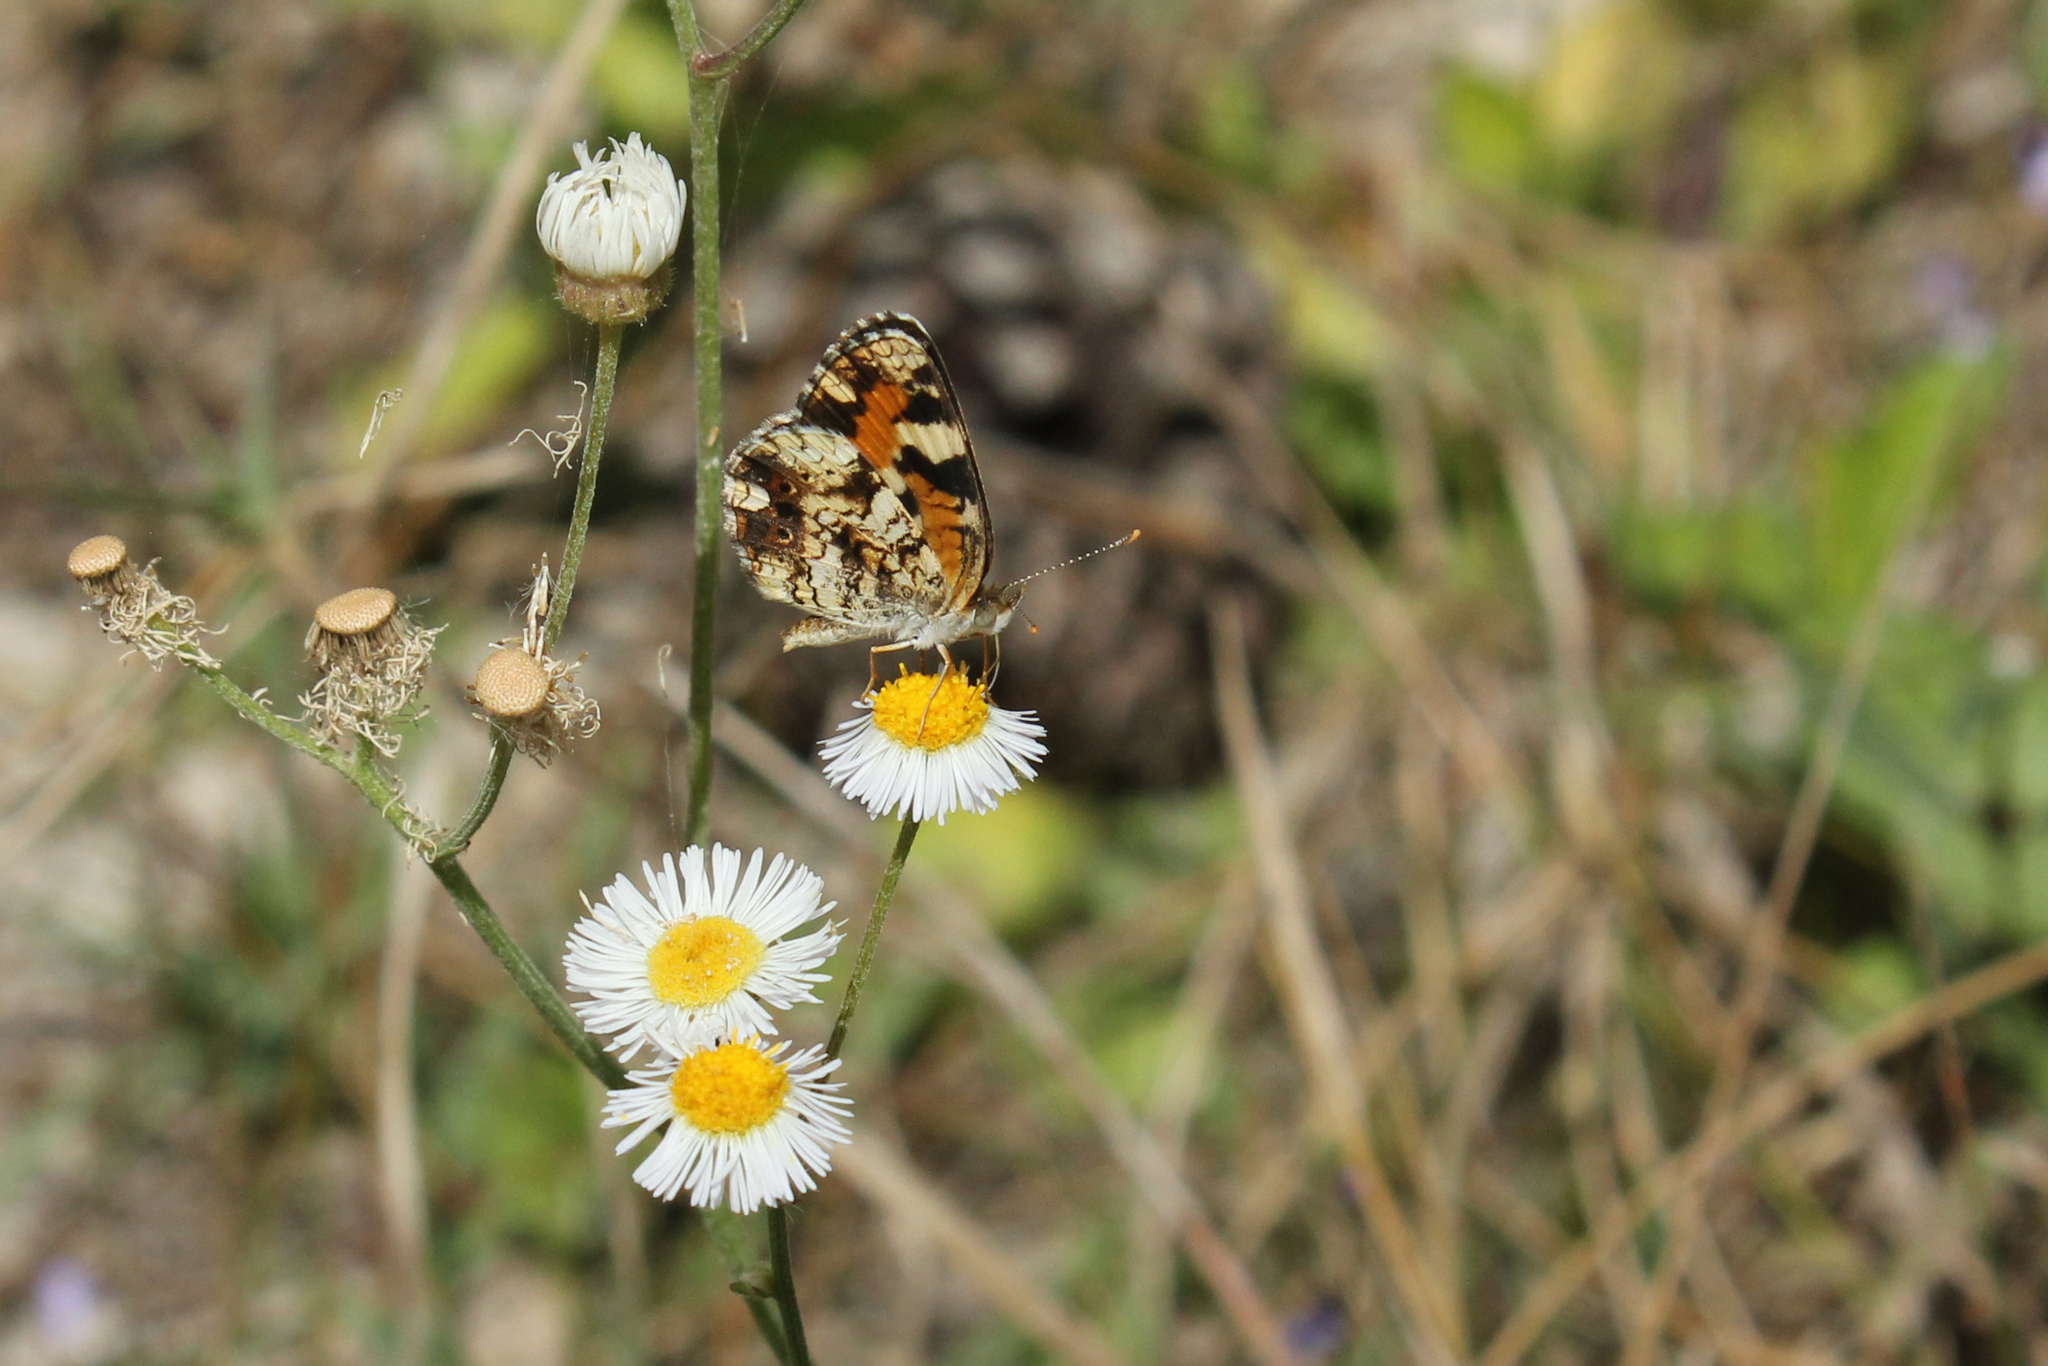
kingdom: Animalia
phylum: Arthropoda
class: Insecta
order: Lepidoptera
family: Nymphalidae
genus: Phyciodes
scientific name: Phyciodes phaon
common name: Phaon crescent
